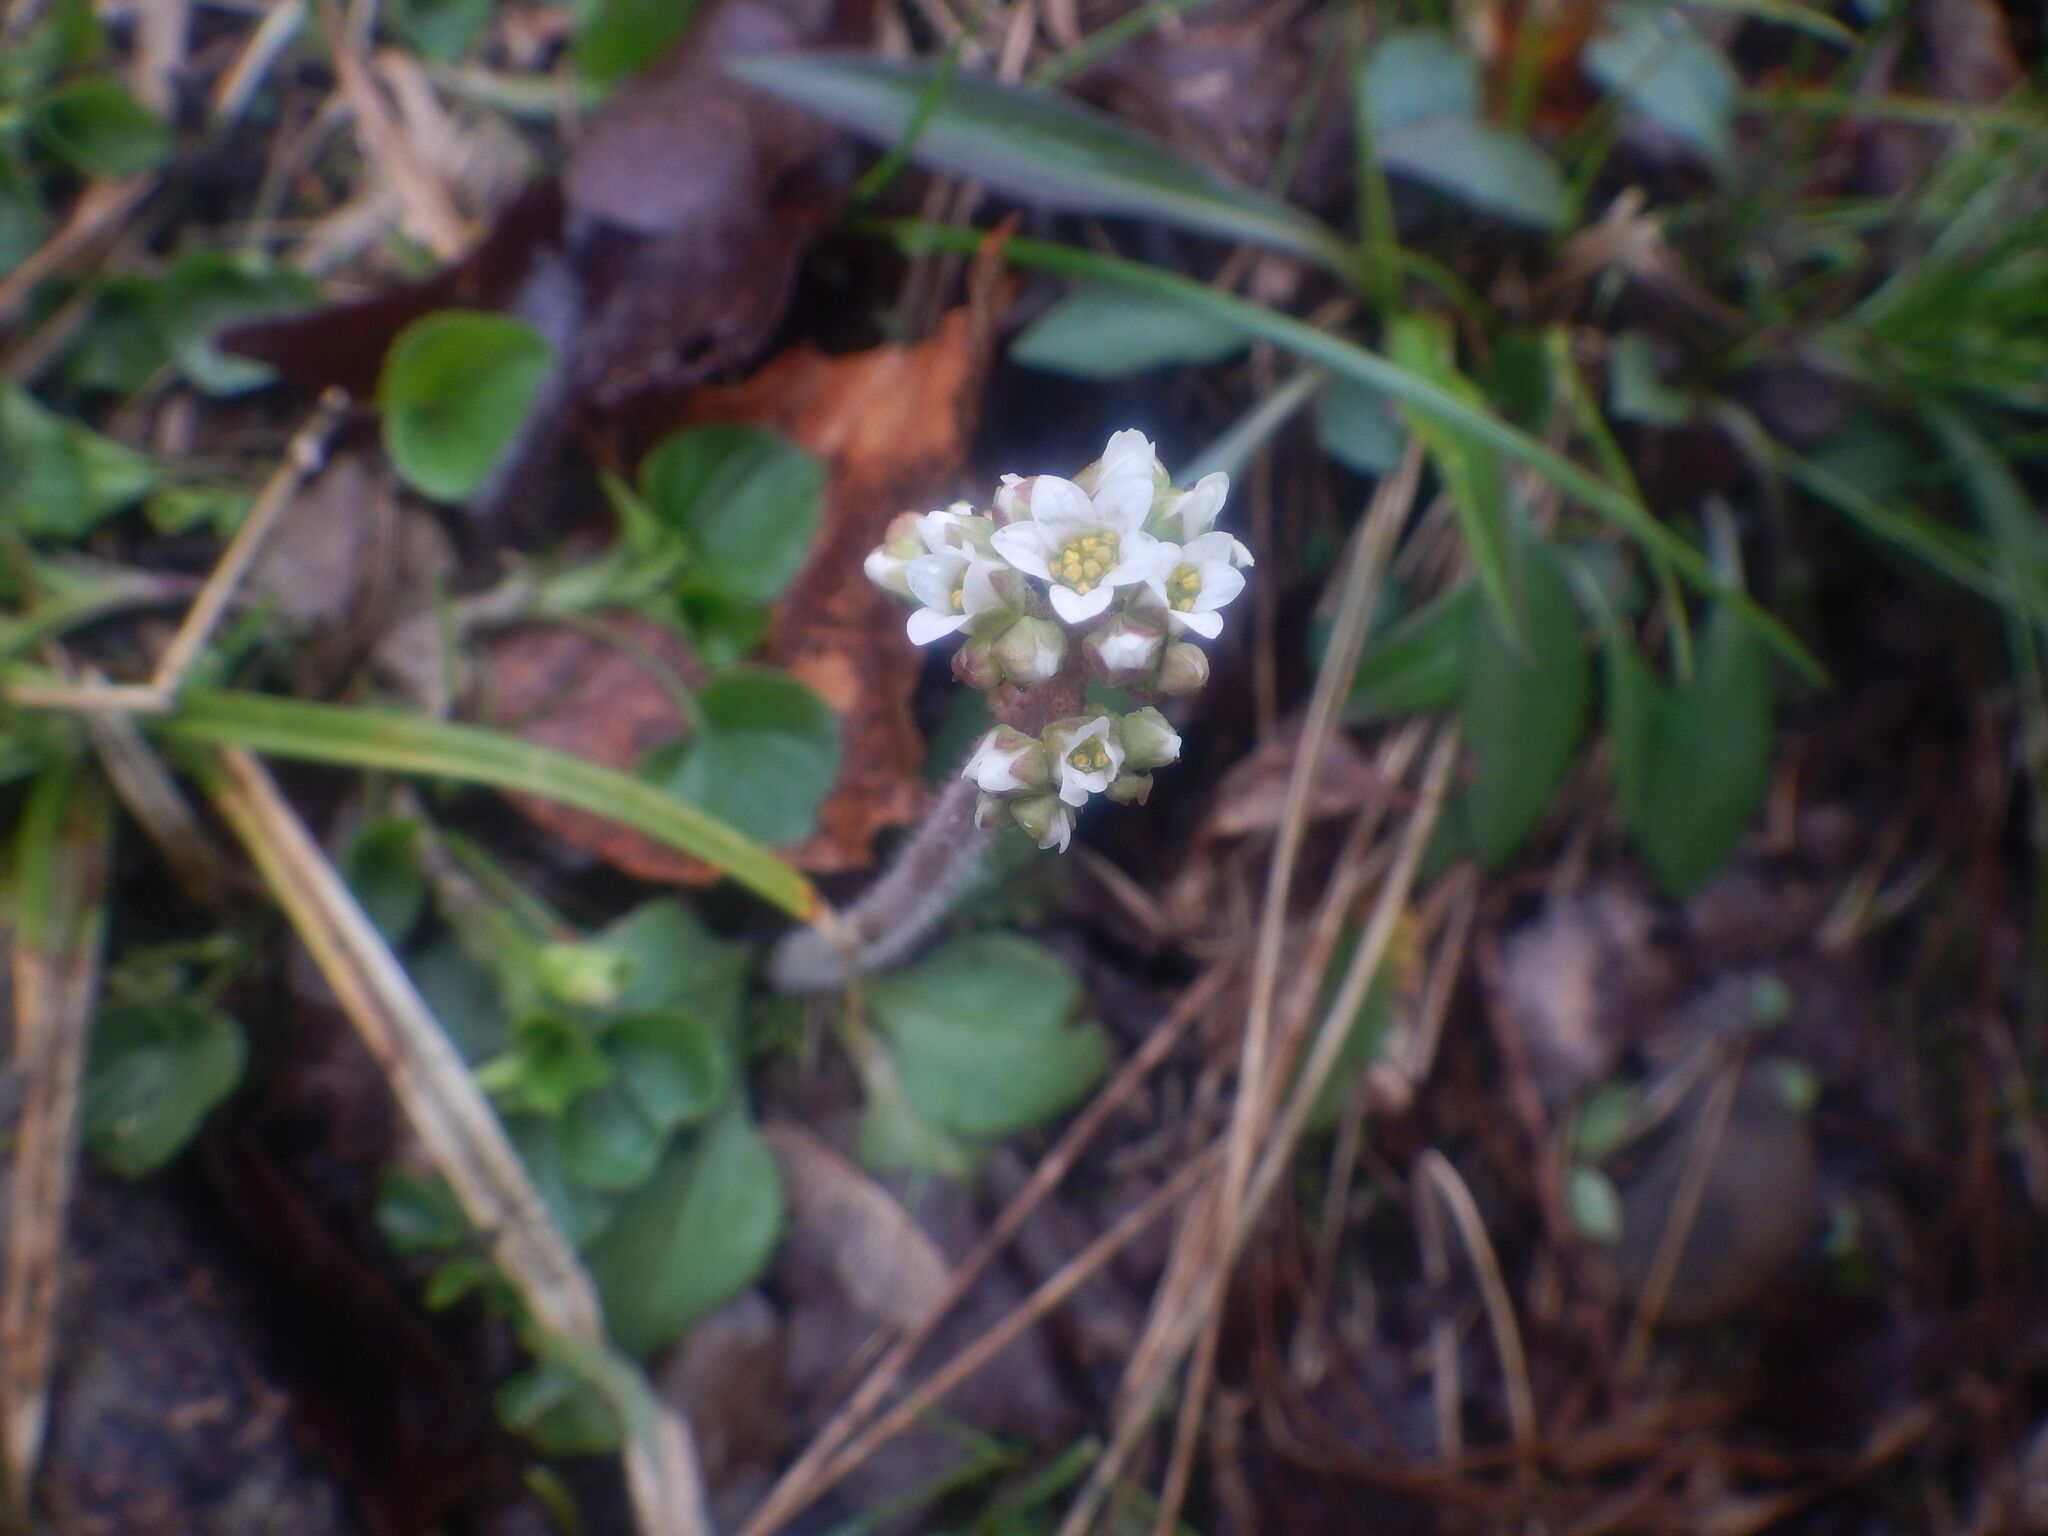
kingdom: Plantae
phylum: Tracheophyta
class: Magnoliopsida
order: Saxifragales
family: Saxifragaceae
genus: Micranthes
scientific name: Micranthes virginiensis
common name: Early saxifrage
